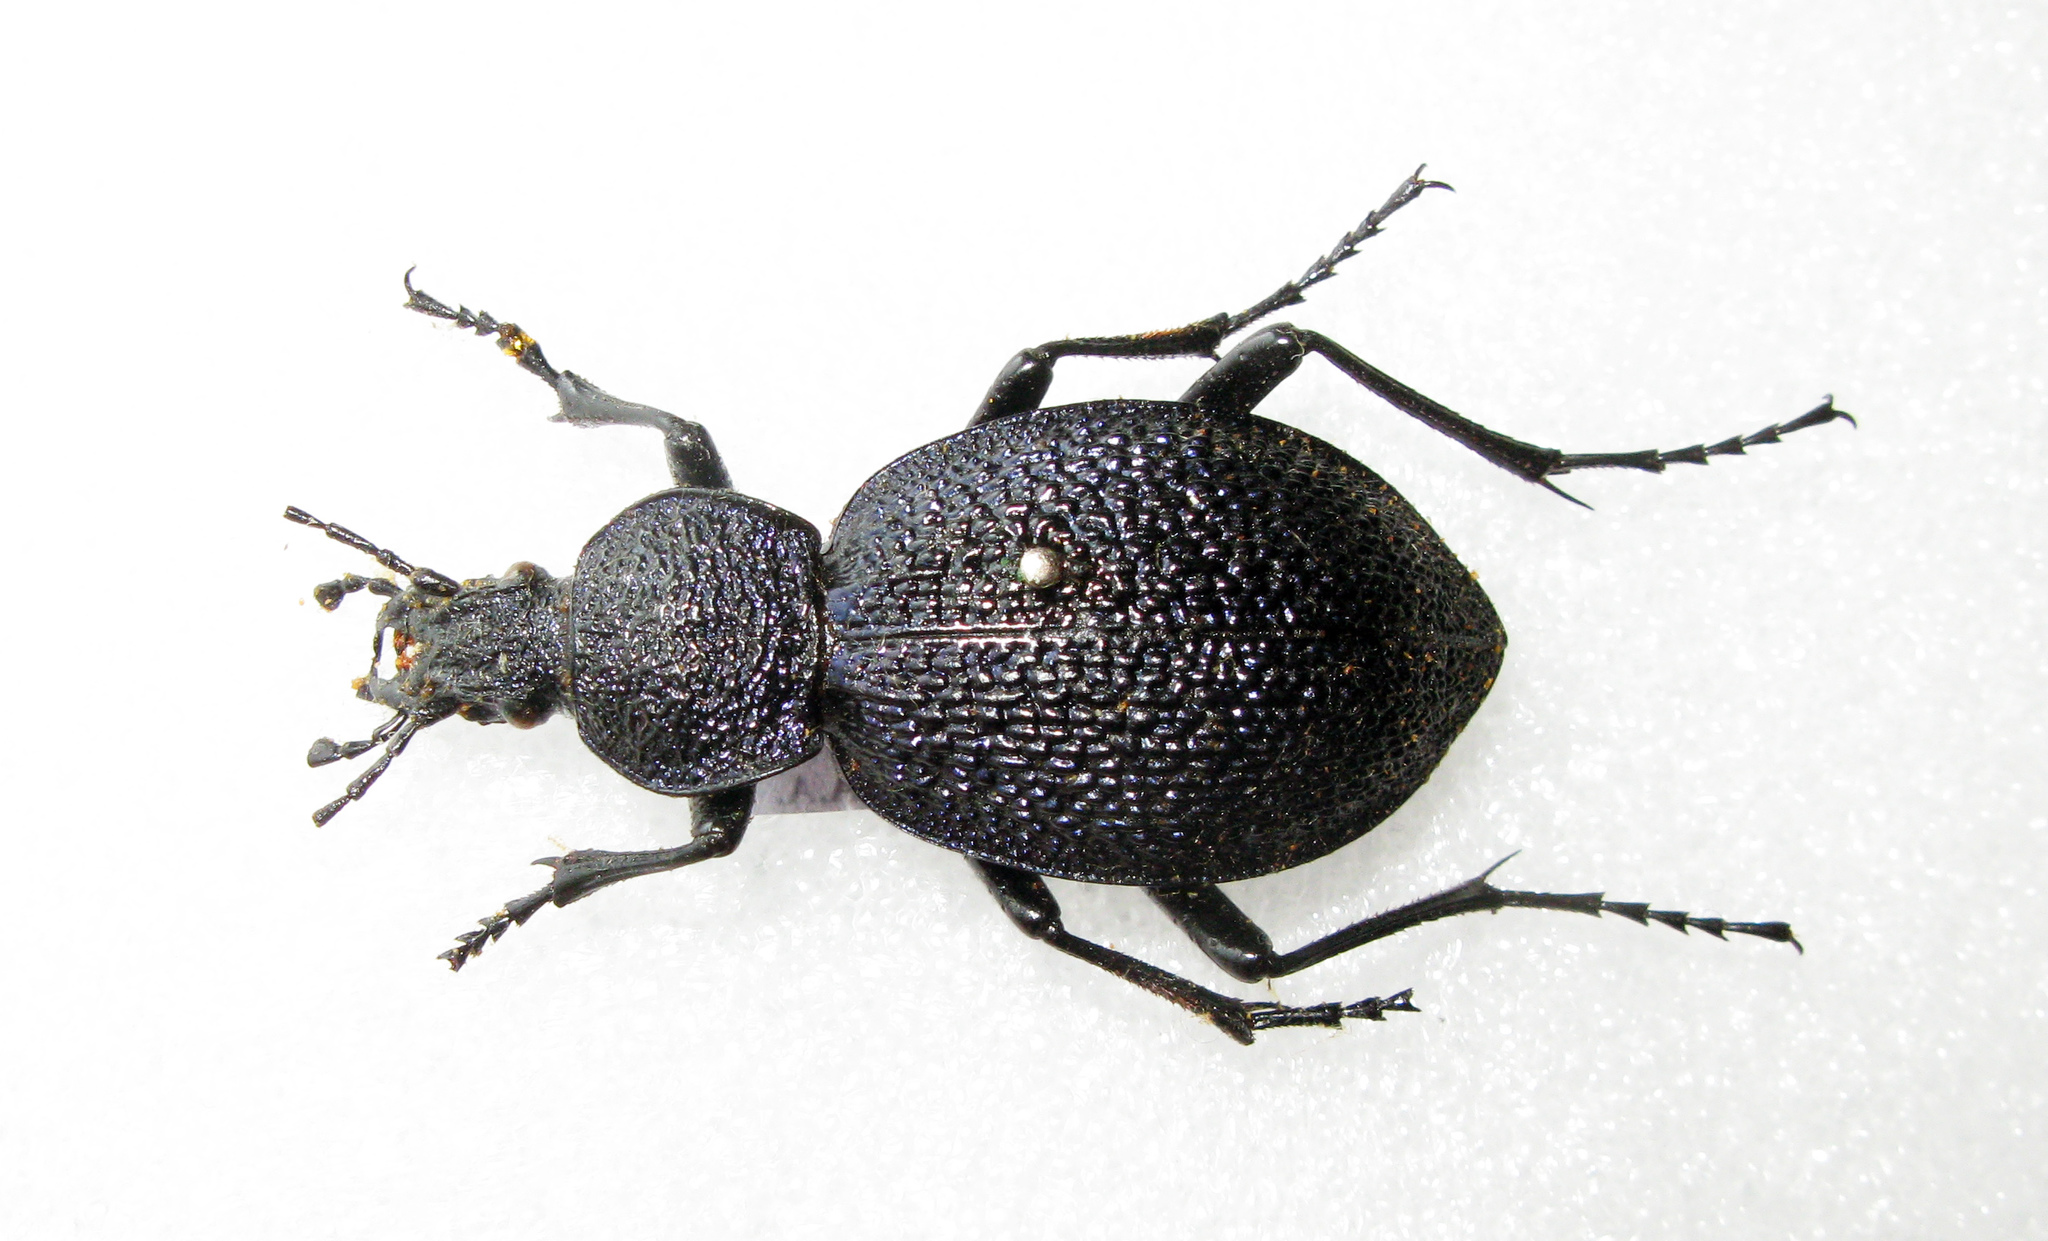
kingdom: Animalia
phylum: Arthropoda
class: Insecta
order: Coleoptera
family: Carabidae
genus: Carabus
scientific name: Carabus scabrosus
